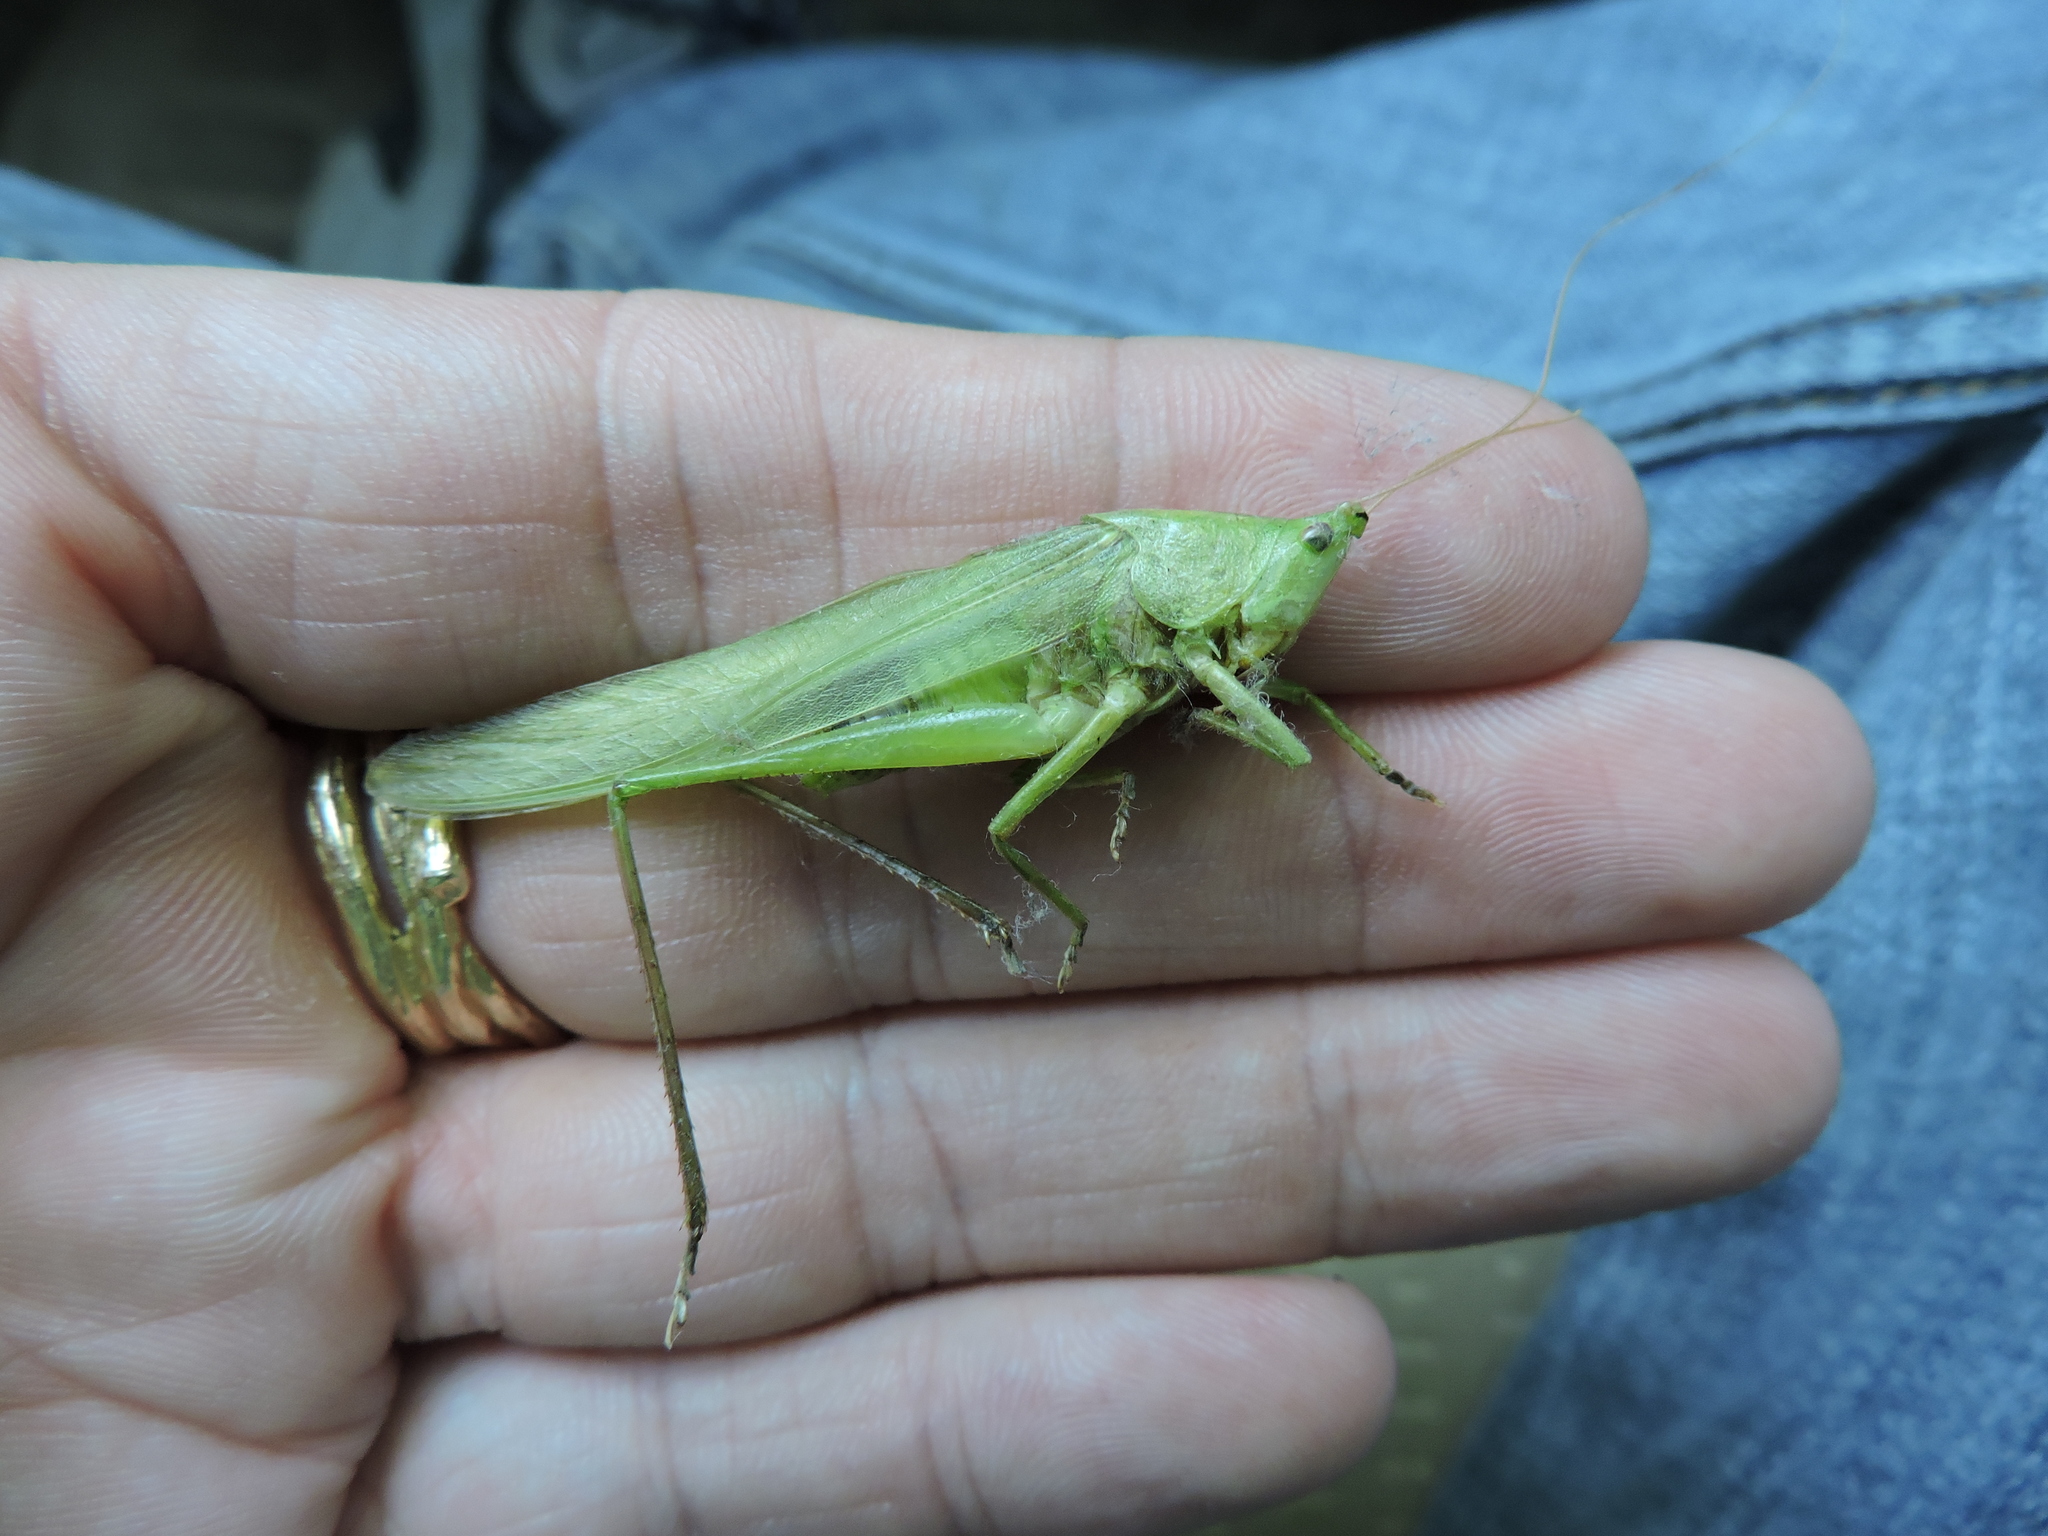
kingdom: Animalia
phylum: Arthropoda
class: Insecta
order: Orthoptera
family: Tettigoniidae
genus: Neoconocephalus
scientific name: Neoconocephalus triops
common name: Broad-tipped conehead
